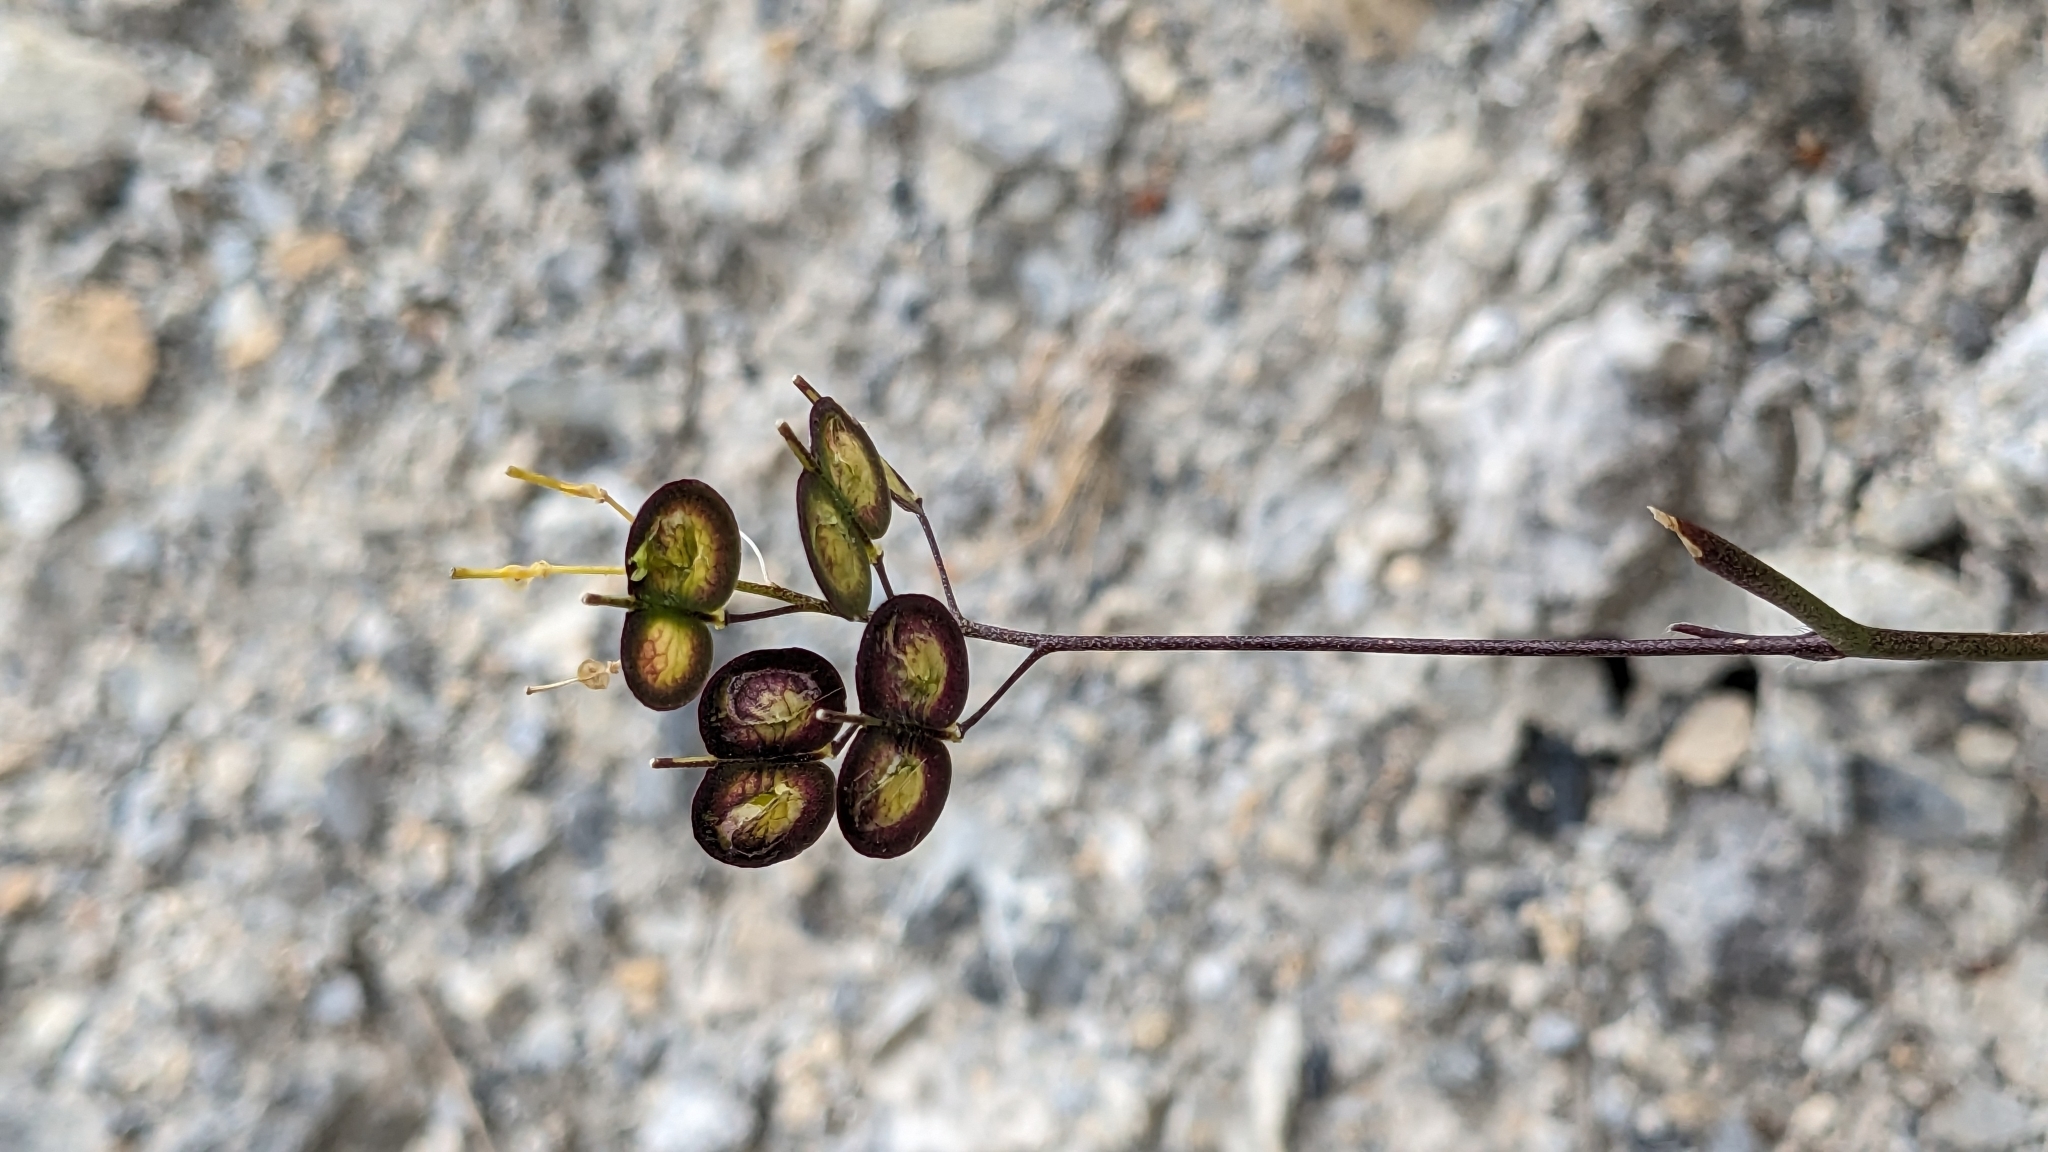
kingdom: Plantae
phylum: Tracheophyta
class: Magnoliopsida
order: Brassicales
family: Brassicaceae
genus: Biscutella
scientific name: Biscutella laevigata
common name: Buckler mustard
